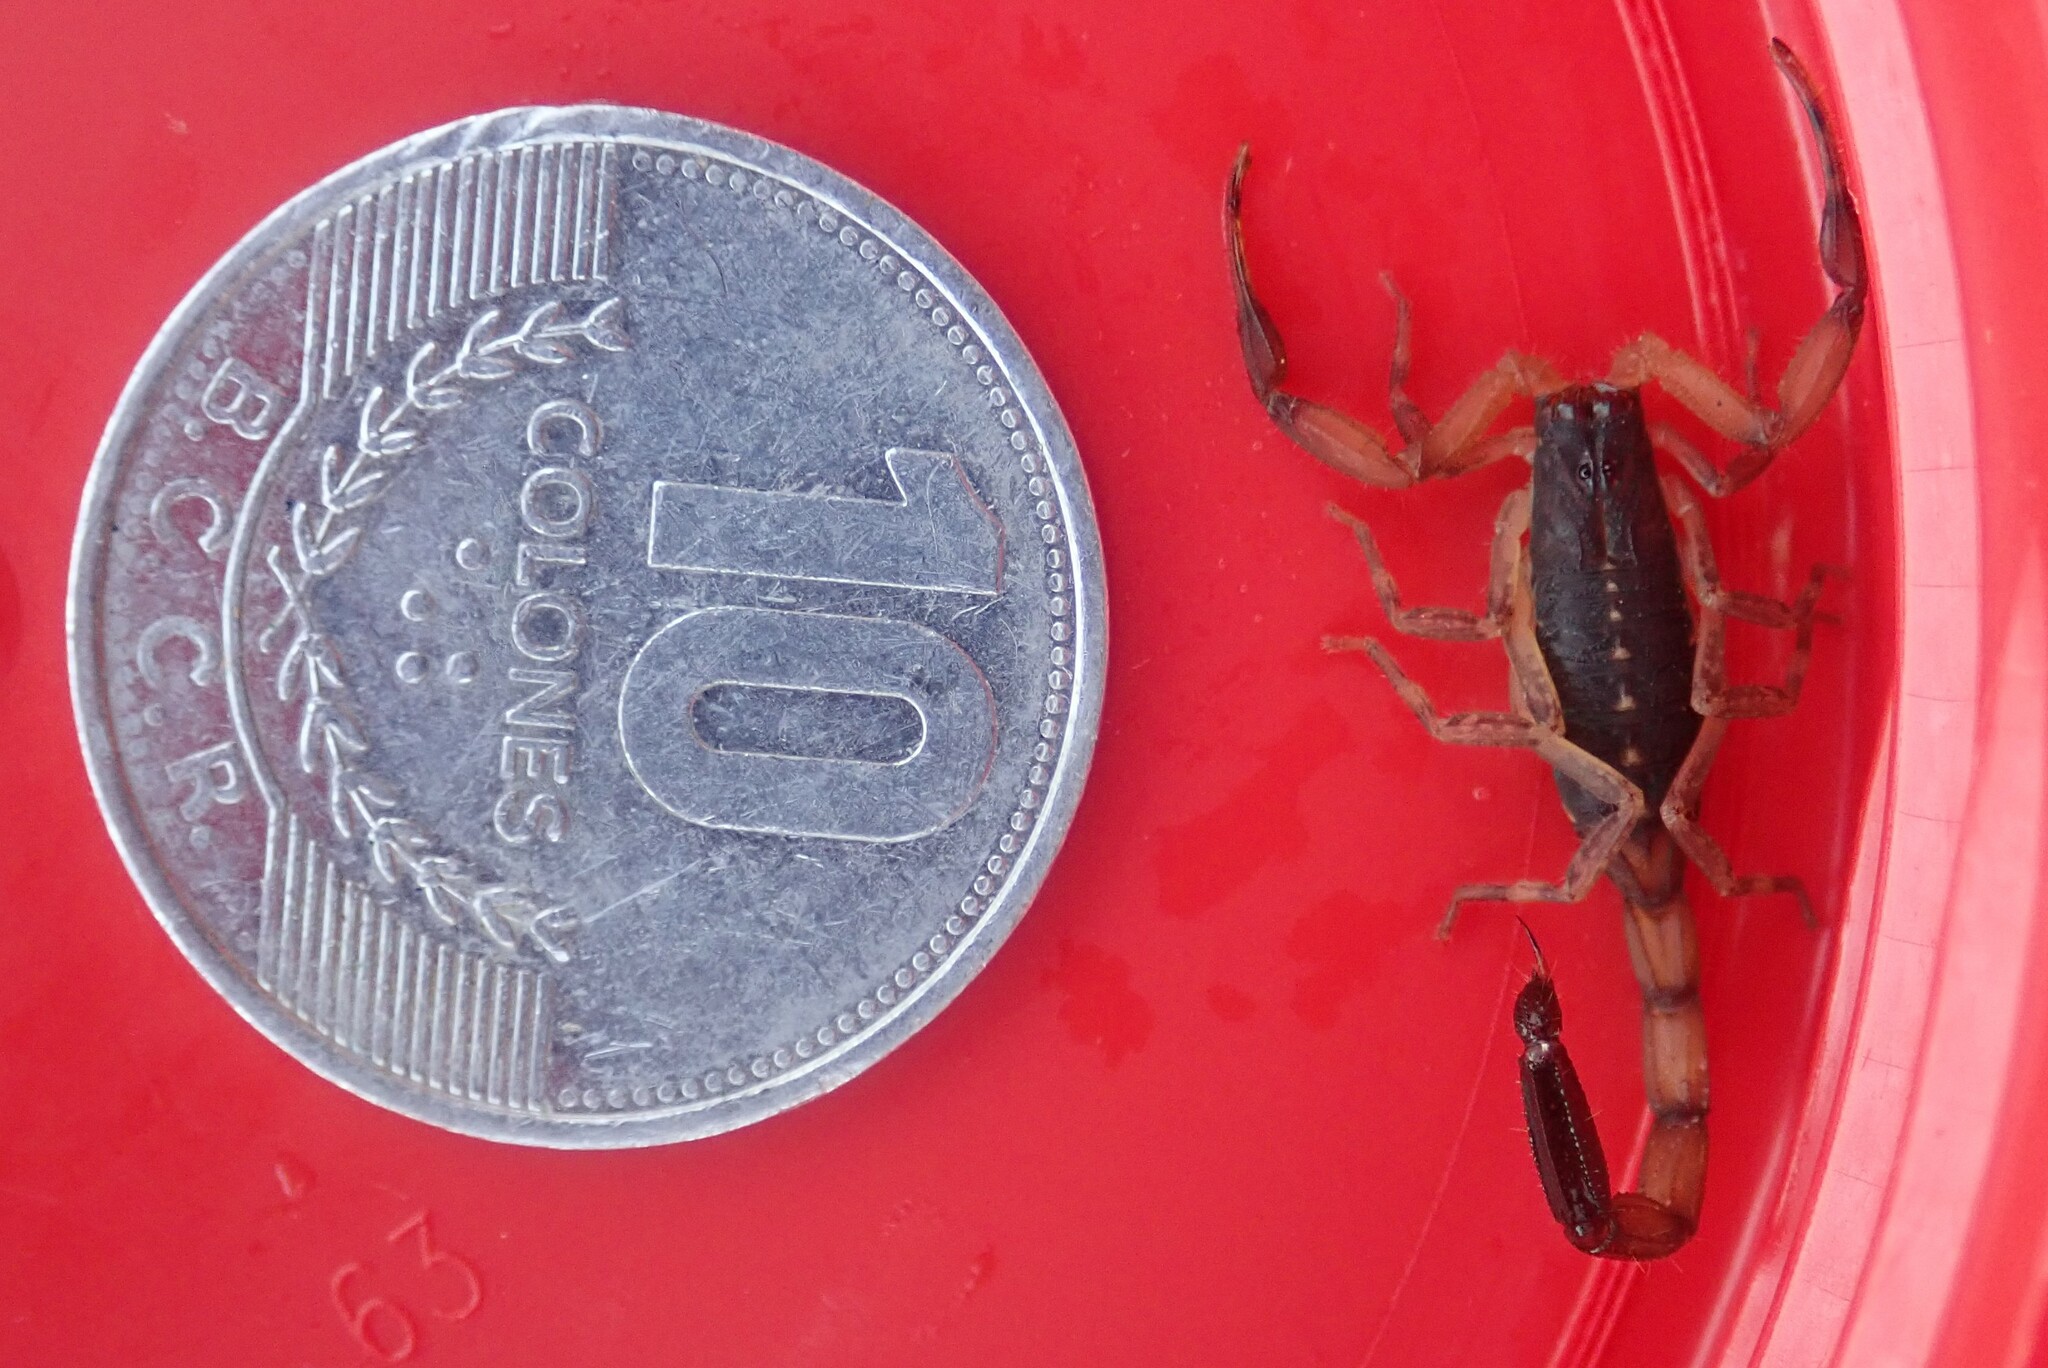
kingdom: Animalia
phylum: Arthropoda
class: Arachnida
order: Scorpiones
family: Buthidae
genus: Centruroides
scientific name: Centruroides bicolor
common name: Scorpions
